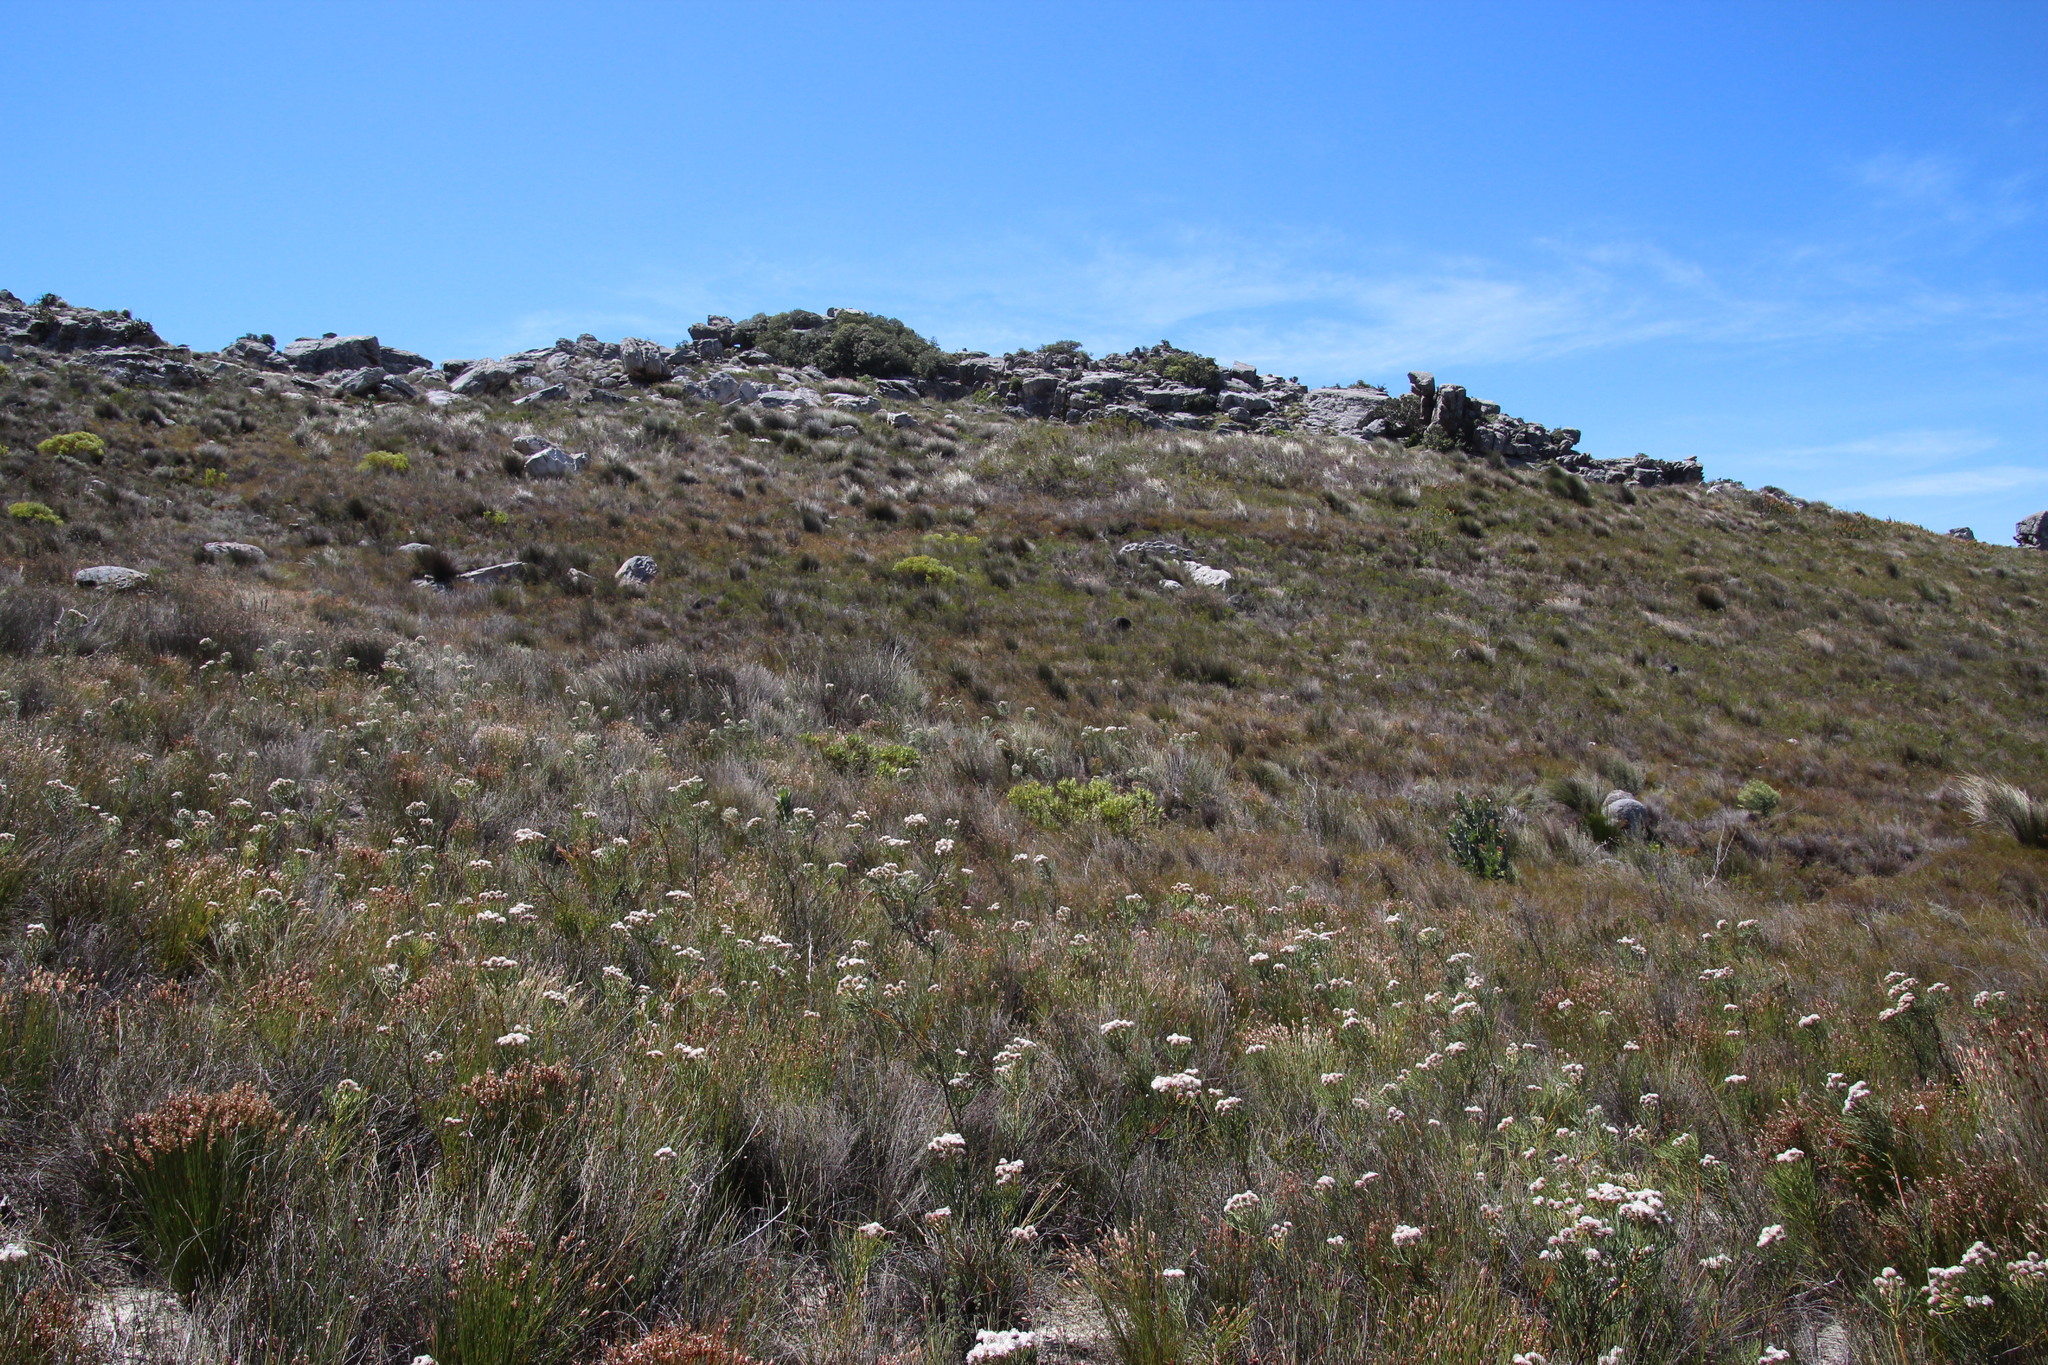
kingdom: Plantae
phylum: Tracheophyta
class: Magnoliopsida
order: Proteales
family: Proteaceae
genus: Serruria
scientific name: Serruria triternata
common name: Tulbagh spiderhead
